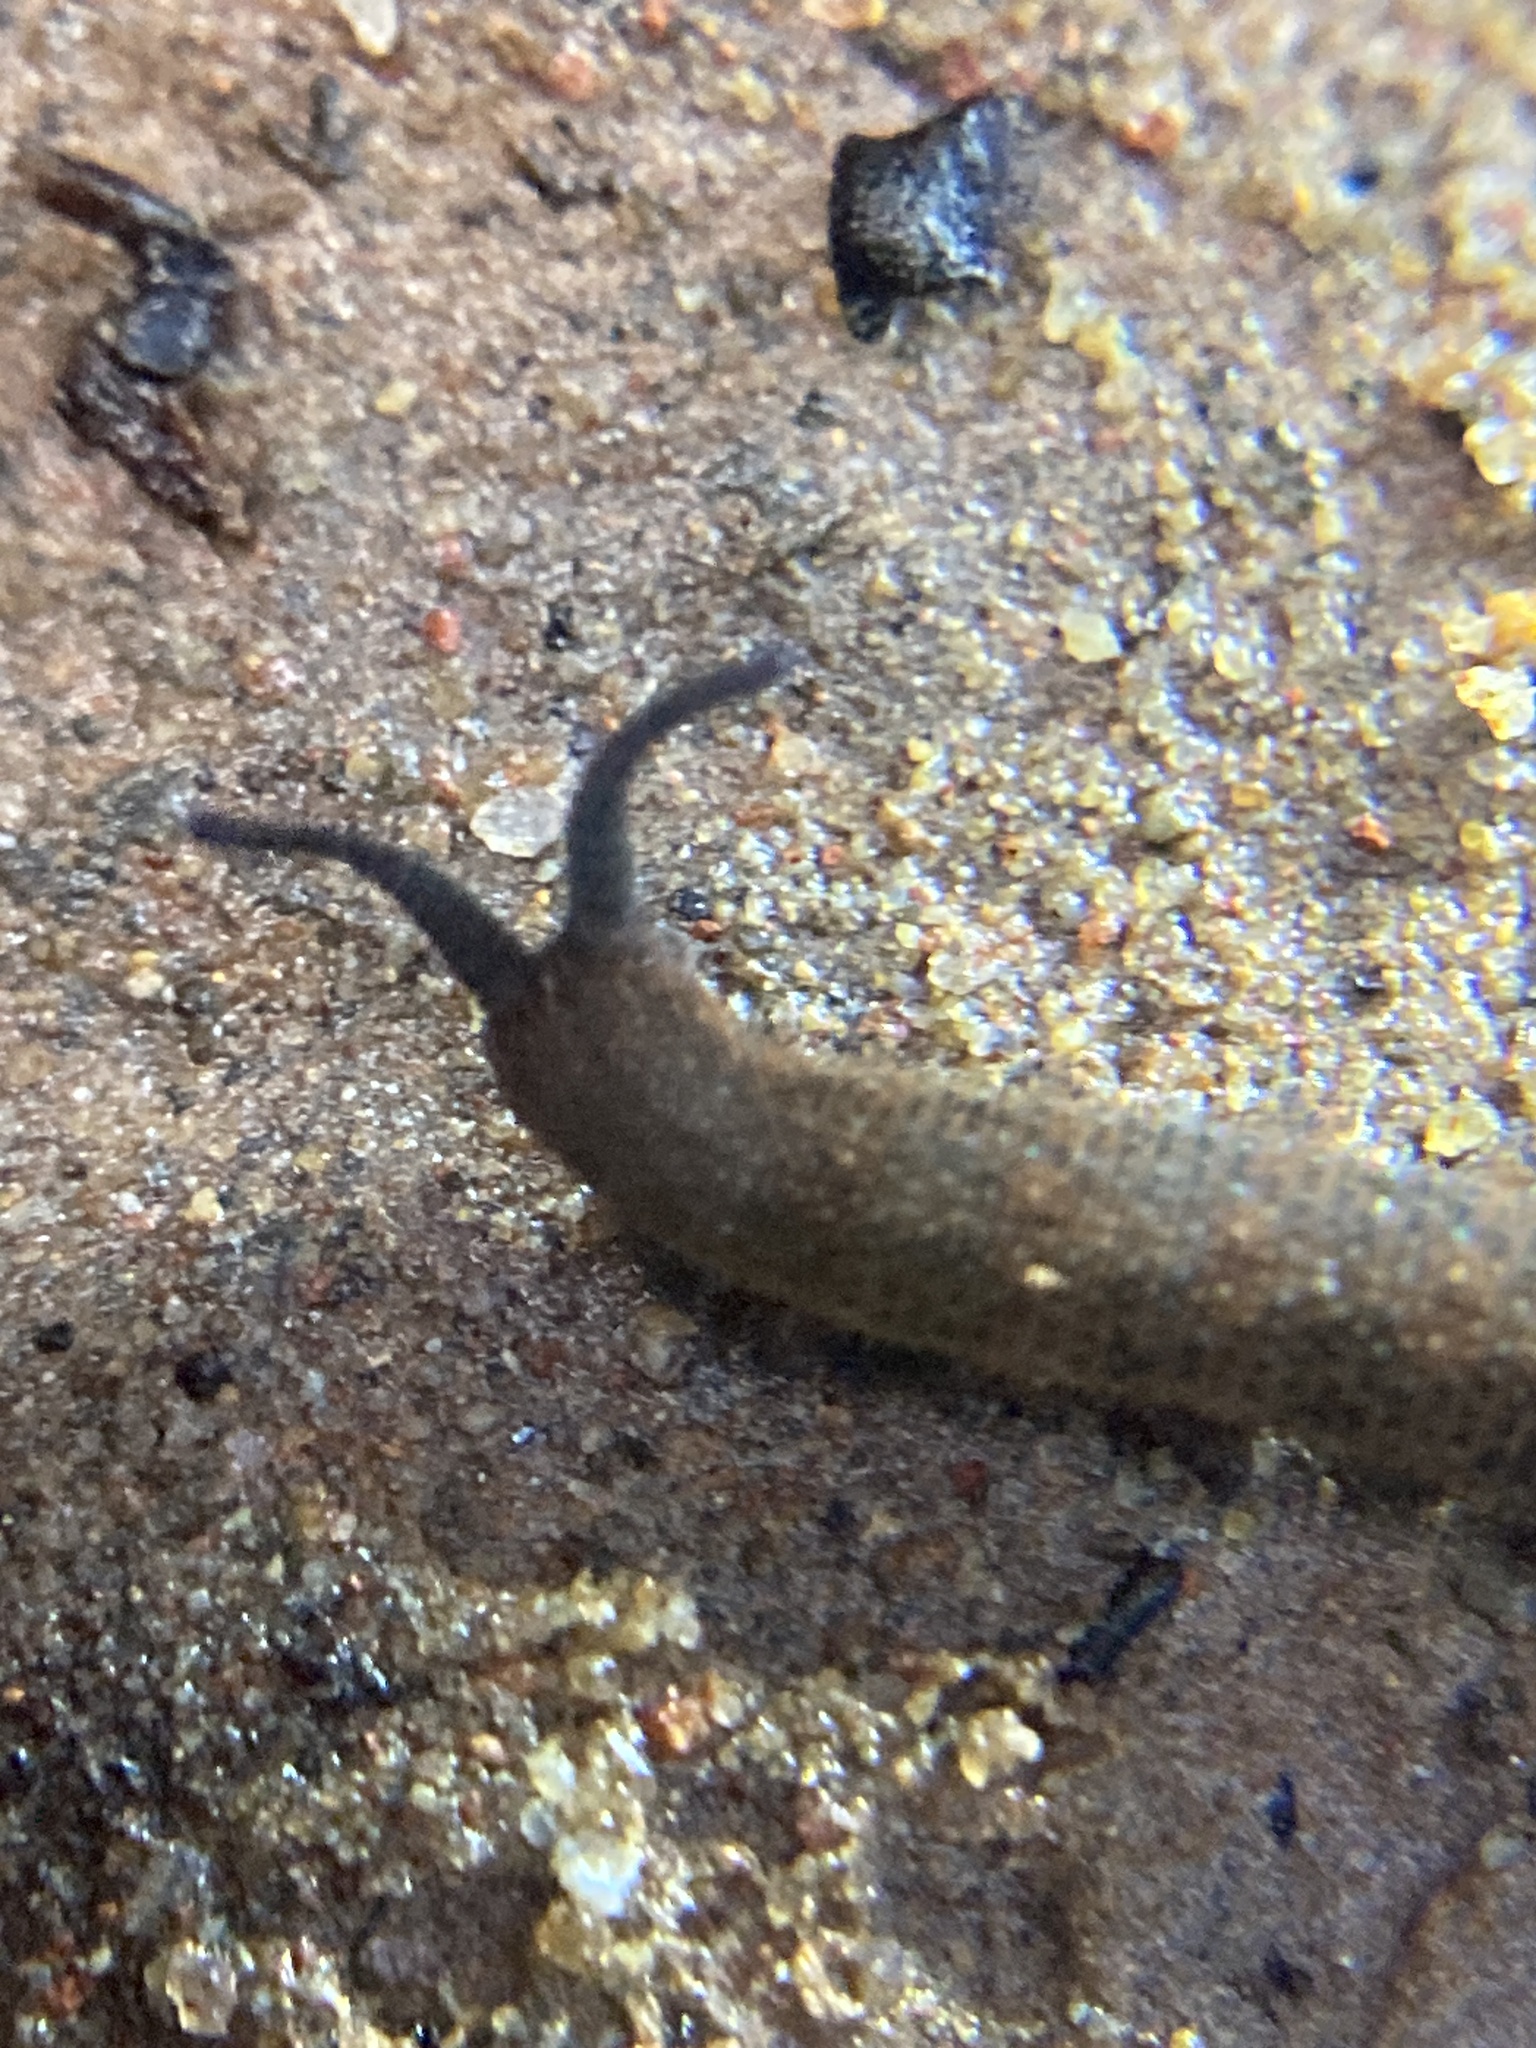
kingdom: Animalia
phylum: Onychophora
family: Peripatopsidae
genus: Anoplokaros
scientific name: Anoplokaros keerensis
